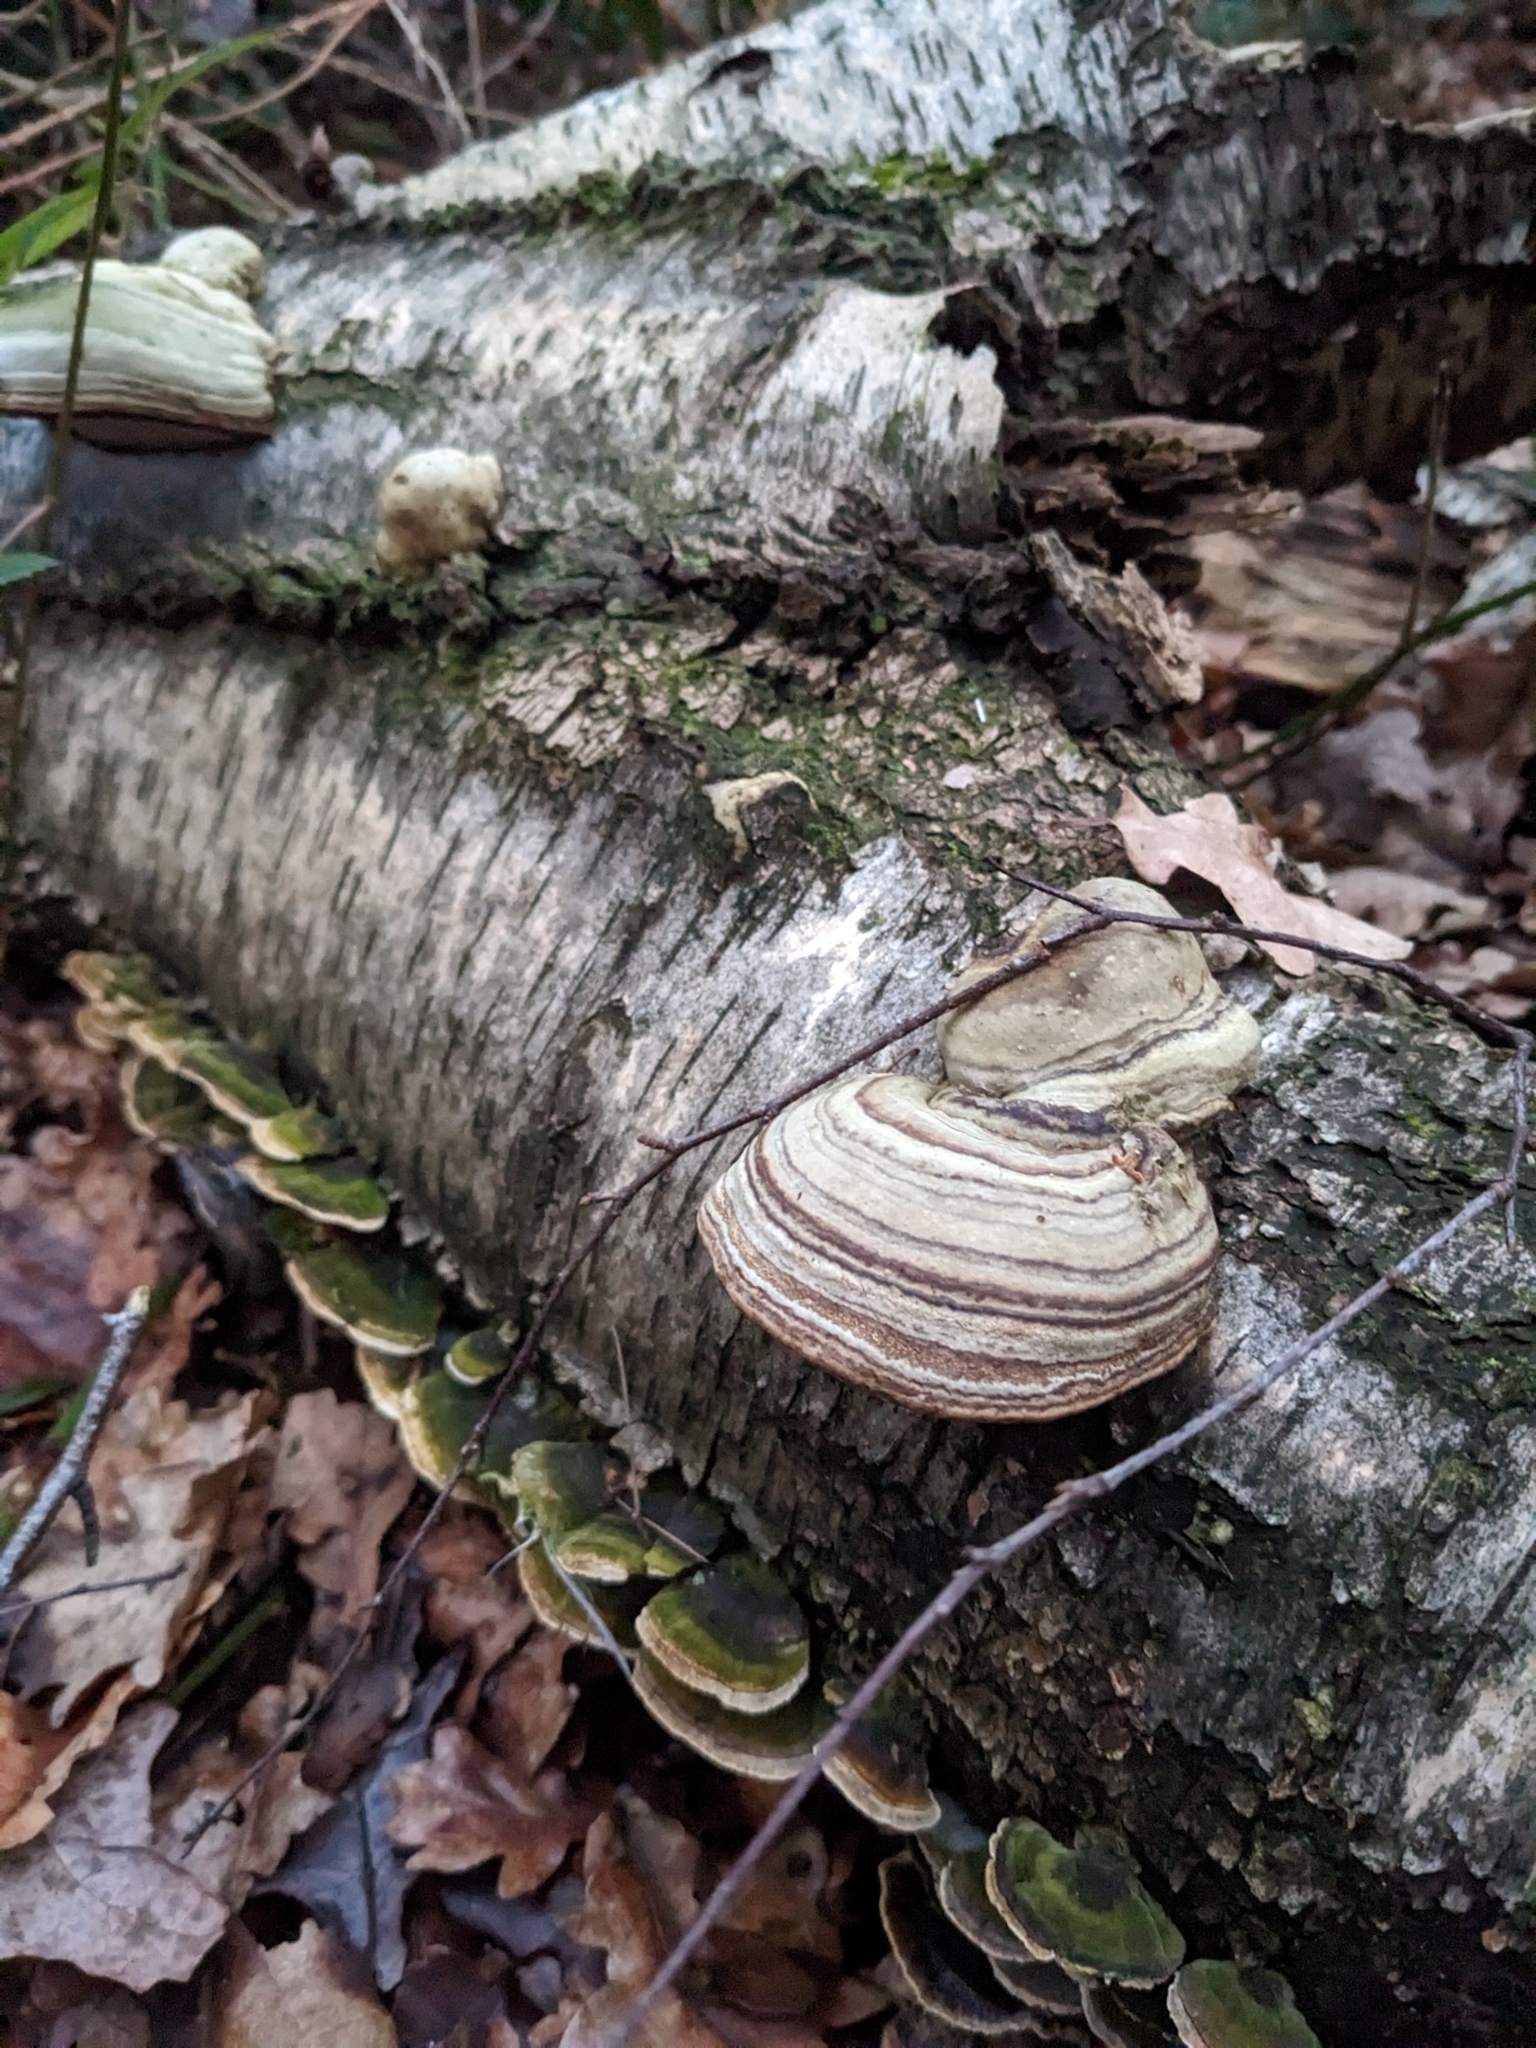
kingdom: Fungi
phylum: Basidiomycota
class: Agaricomycetes
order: Polyporales
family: Polyporaceae
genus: Fomes
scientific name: Fomes fomentarius
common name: Hoof fungus
